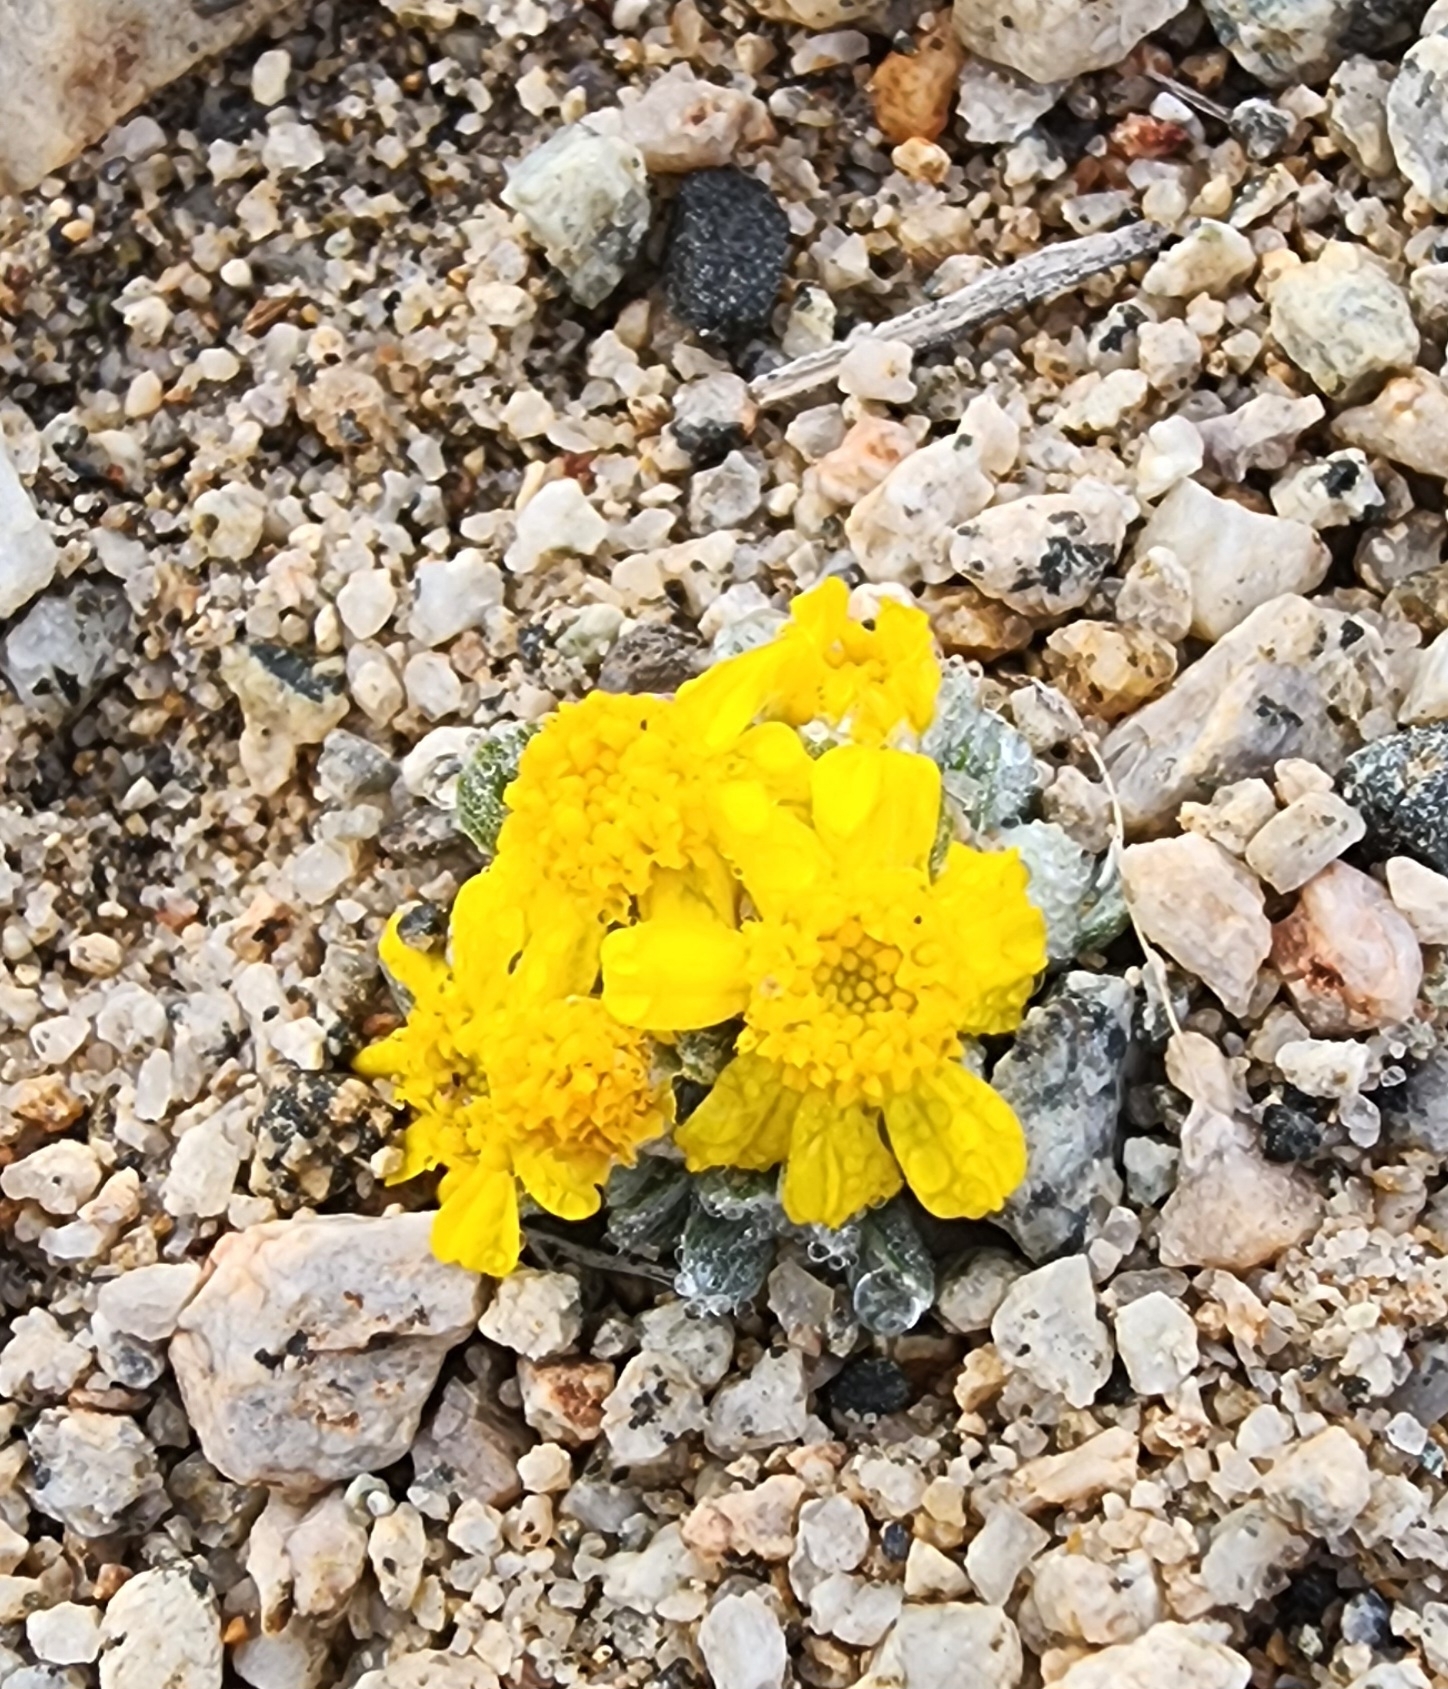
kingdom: Plantae
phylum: Tracheophyta
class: Magnoliopsida
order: Asterales
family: Asteraceae
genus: Eriophyllum
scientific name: Eriophyllum wallacei
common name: Wallace's woolly daisy
